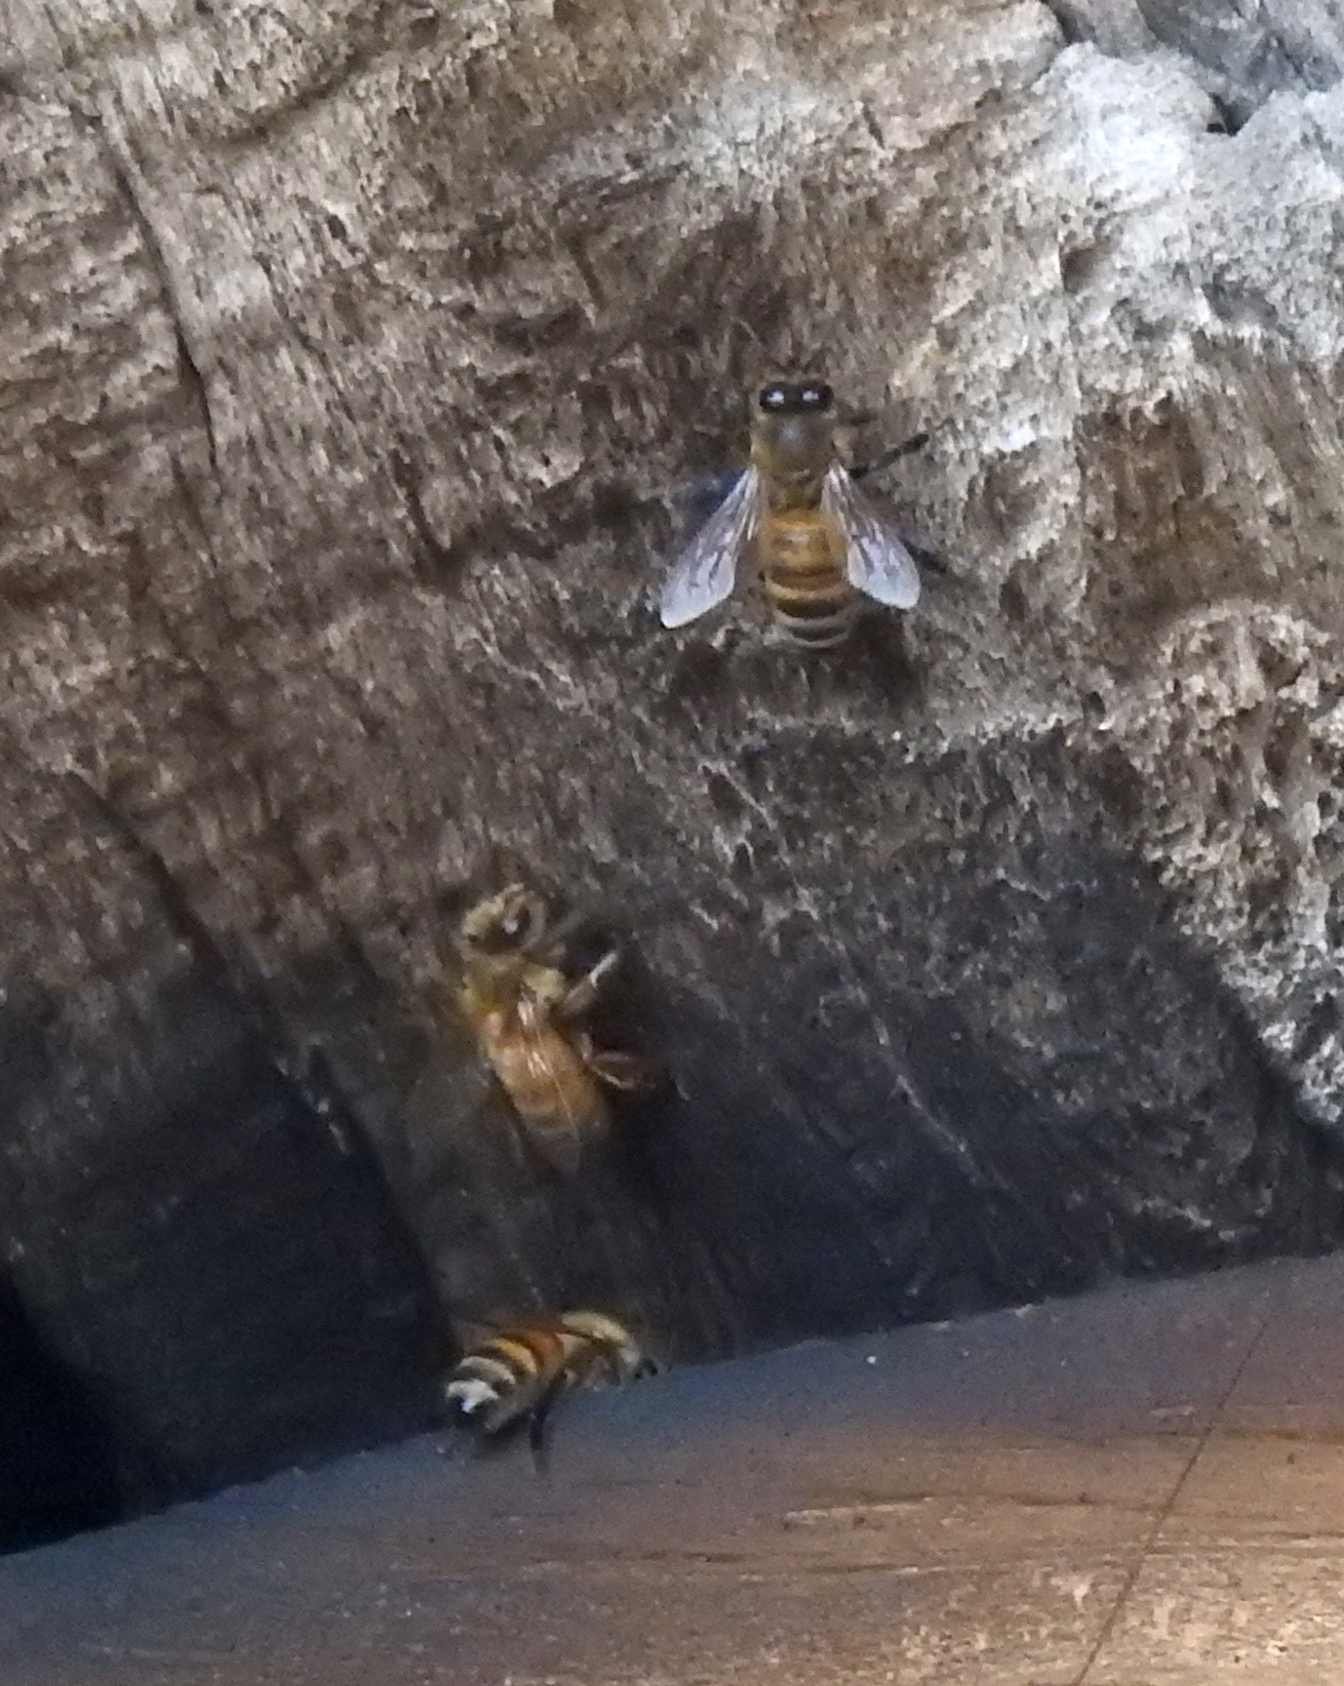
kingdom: Animalia
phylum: Arthropoda
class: Insecta
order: Hymenoptera
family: Apidae
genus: Apis
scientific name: Apis mellifera
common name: Honey bee
